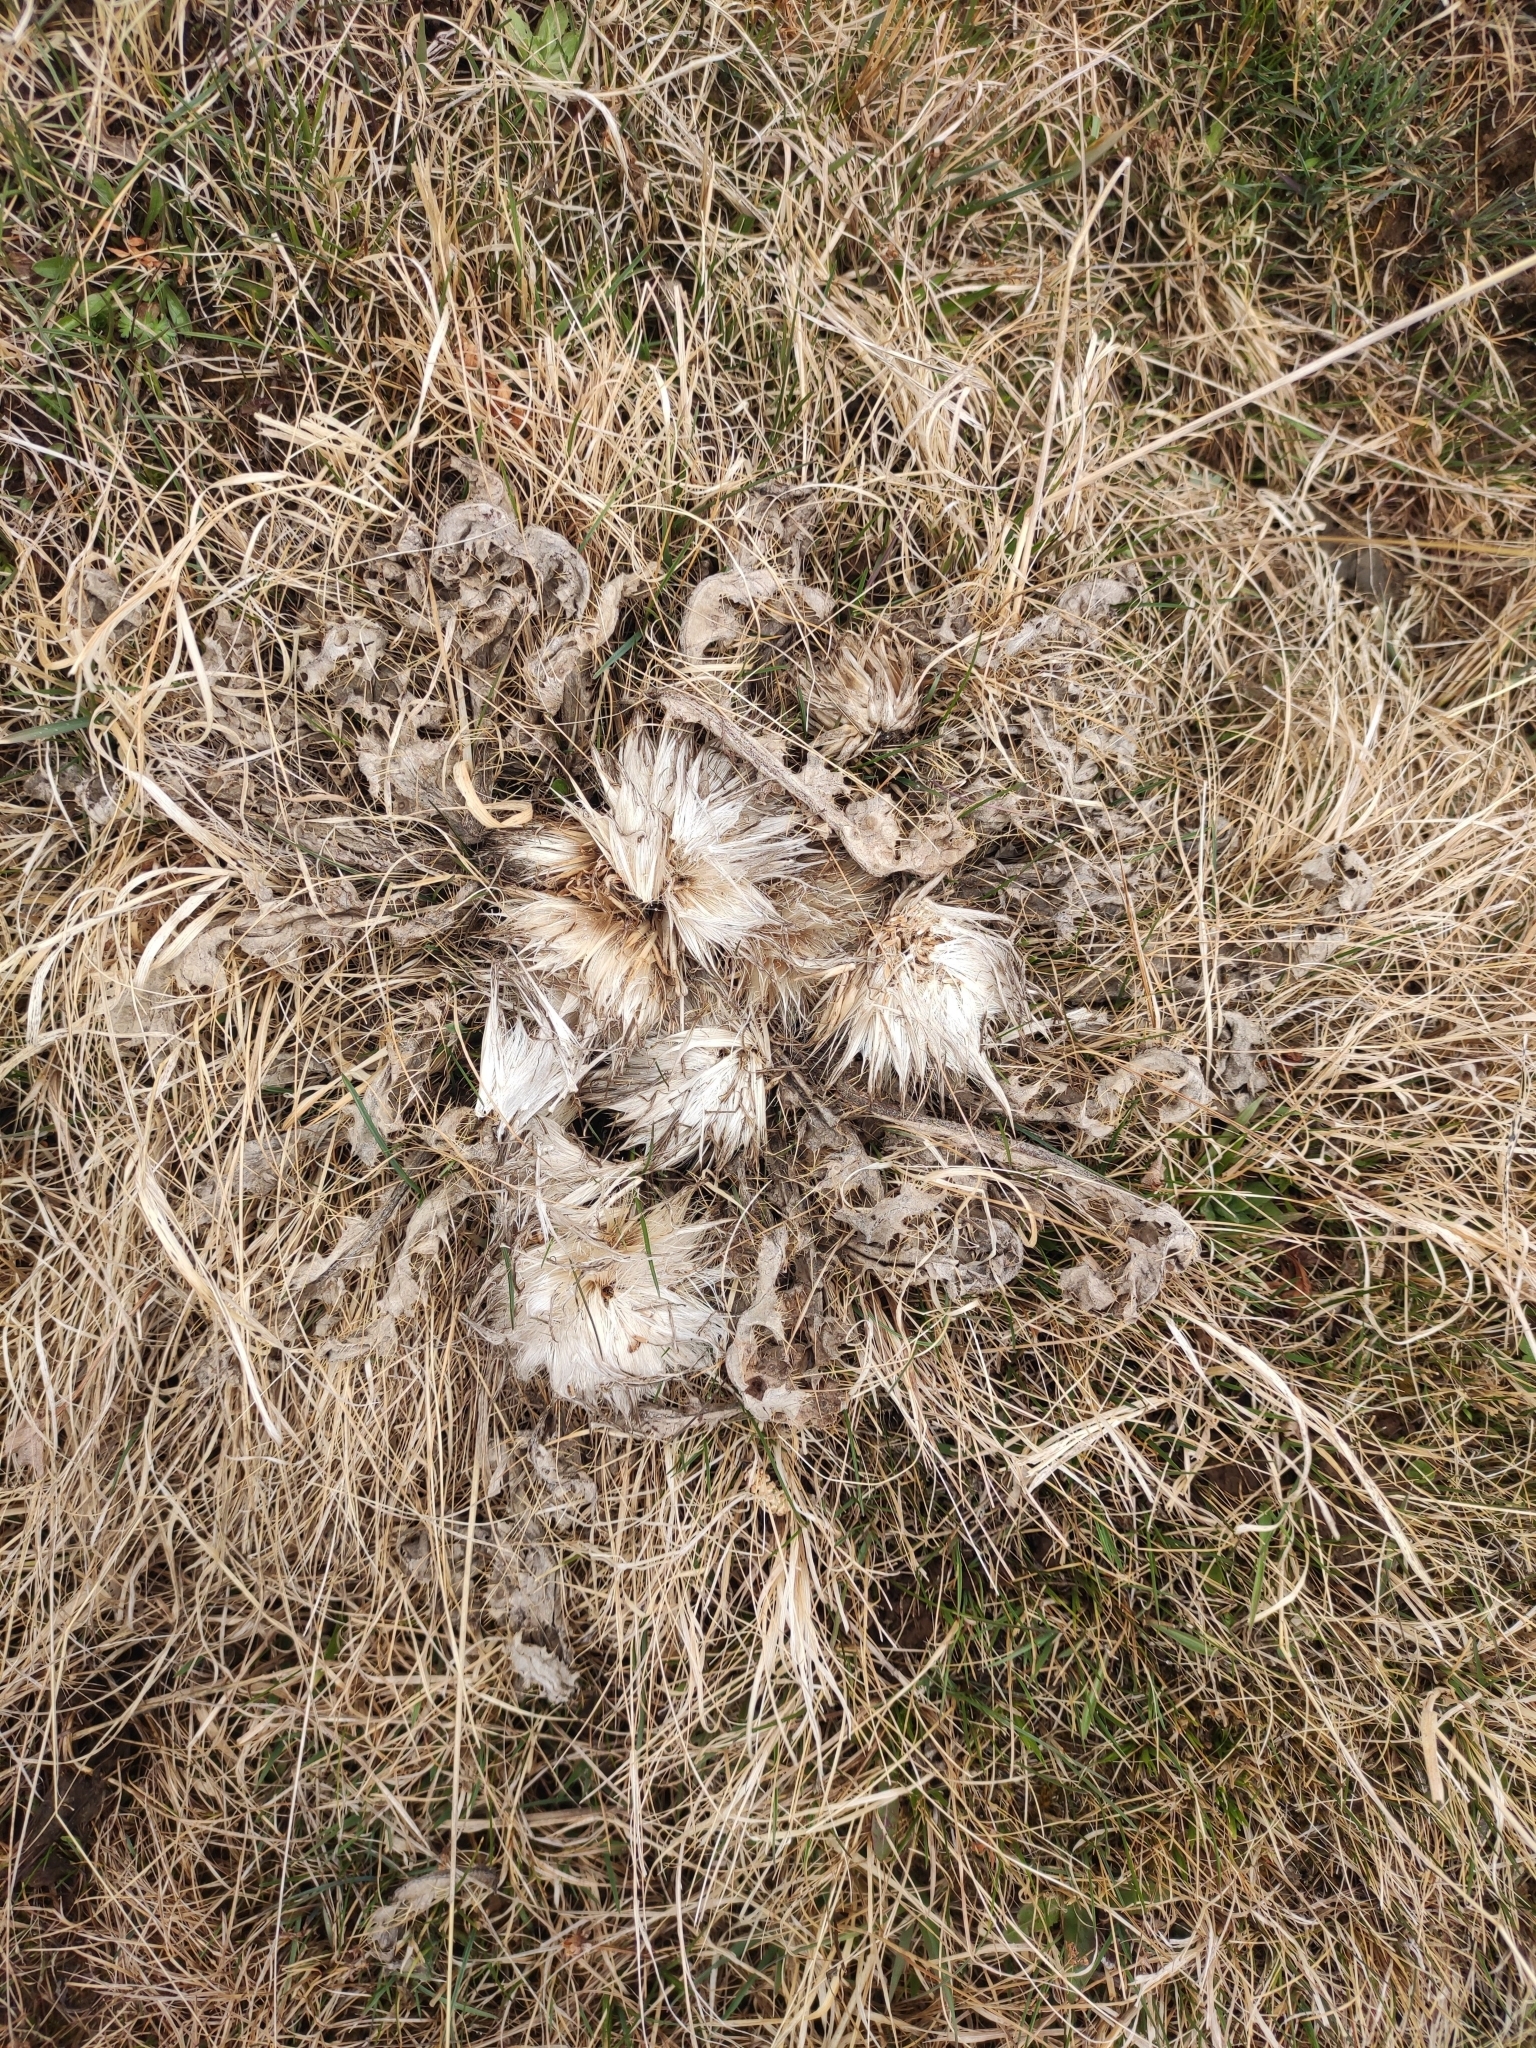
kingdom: Plantae
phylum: Tracheophyta
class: Magnoliopsida
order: Asterales
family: Asteraceae
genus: Cirsium
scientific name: Cirsium esculentum
